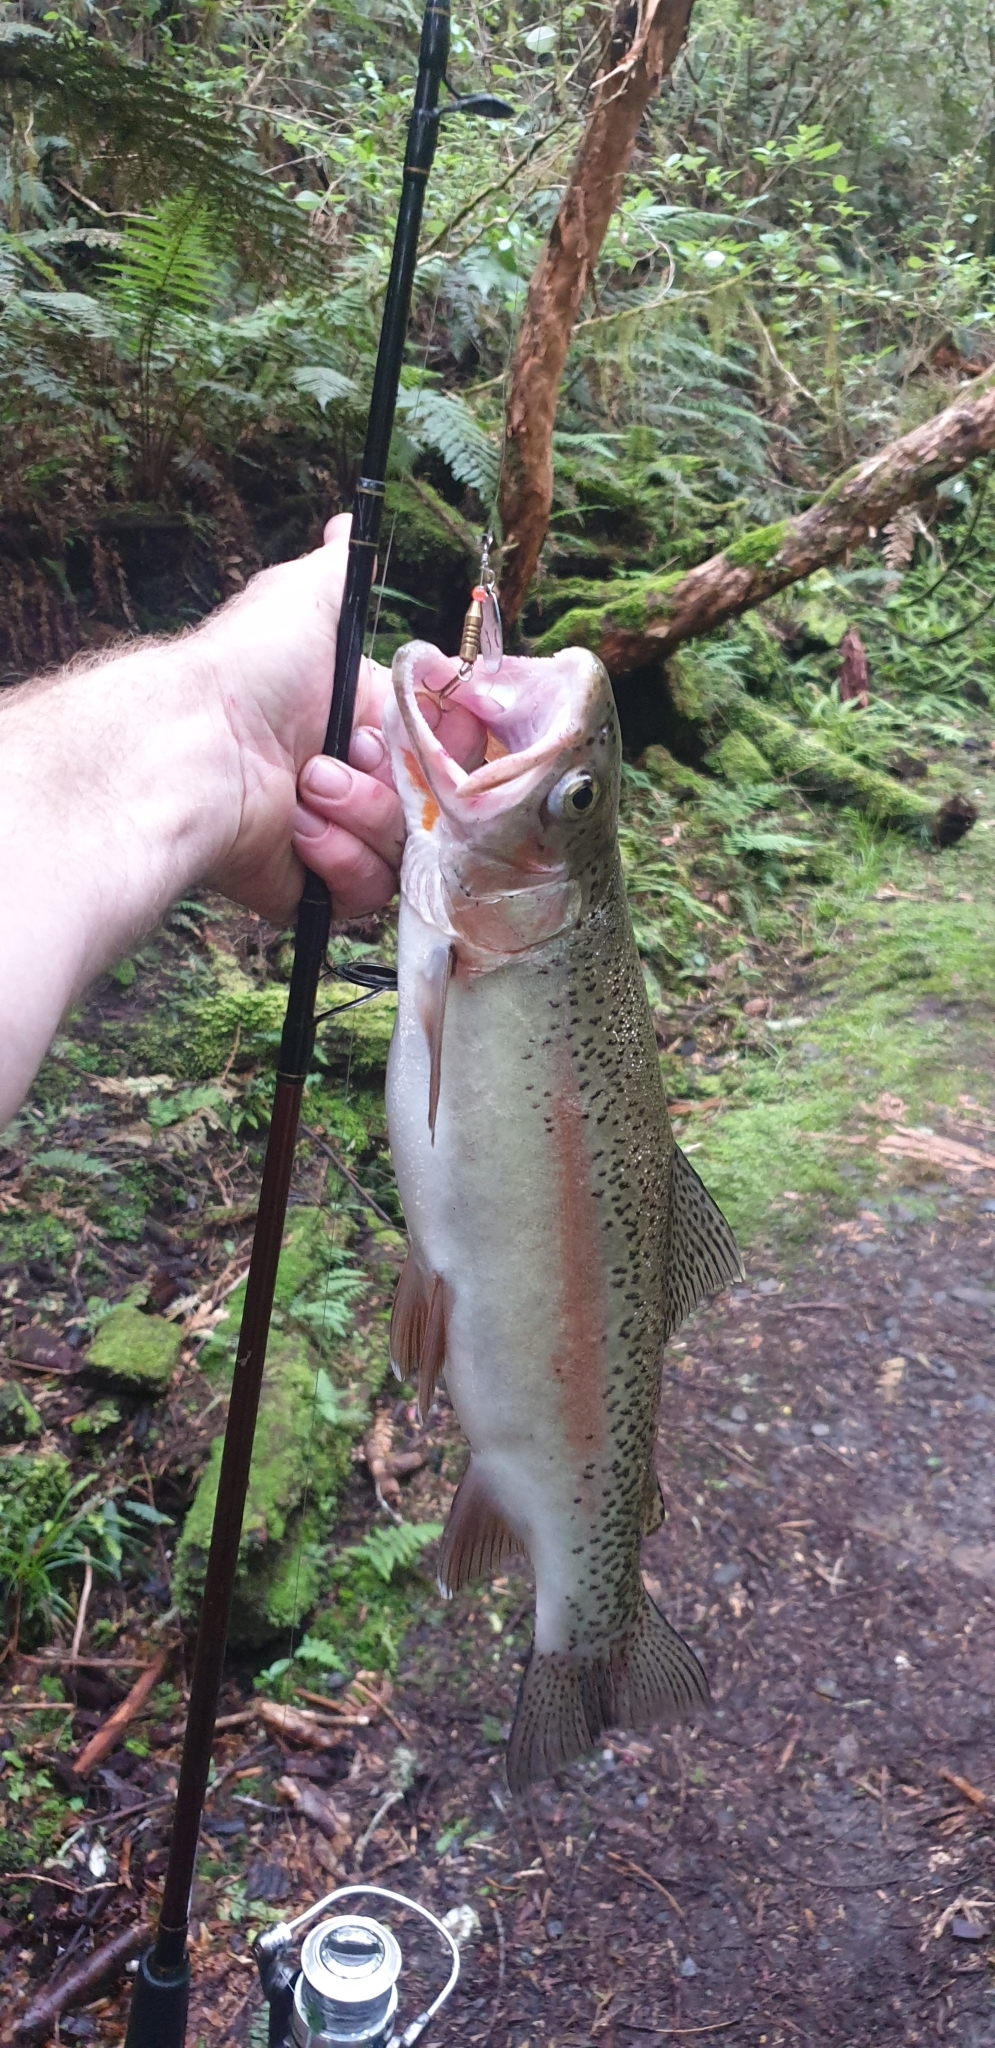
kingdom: Animalia
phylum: Chordata
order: Salmoniformes
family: Salmonidae
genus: Oncorhynchus
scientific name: Oncorhynchus mykiss
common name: Rainbow trout
